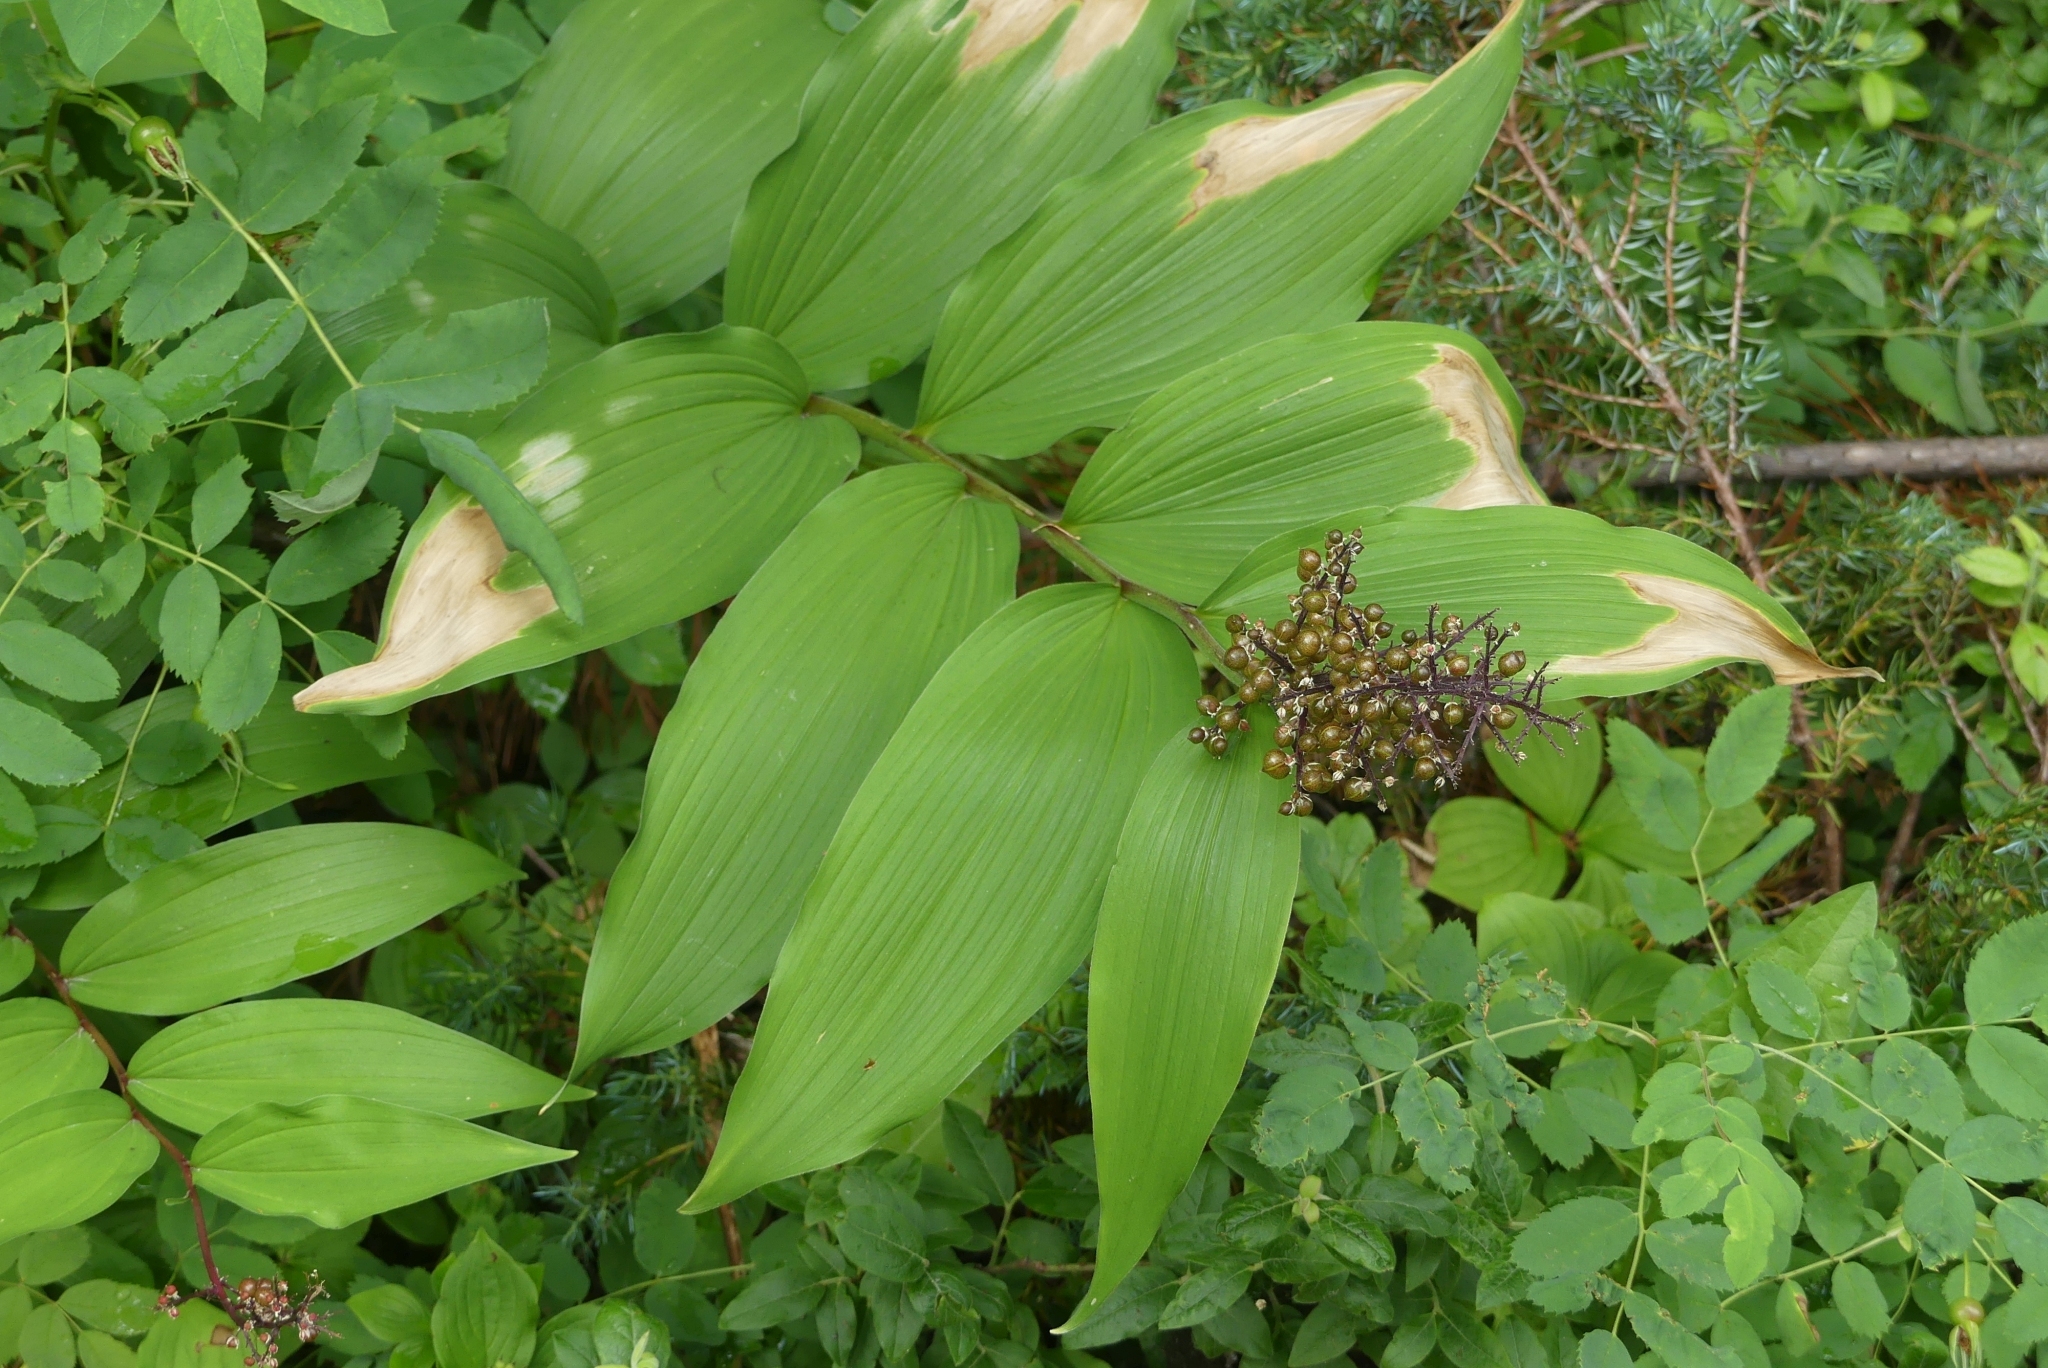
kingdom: Plantae
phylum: Tracheophyta
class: Liliopsida
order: Asparagales
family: Asparagaceae
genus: Maianthemum
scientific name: Maianthemum racemosum
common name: False spikenard
